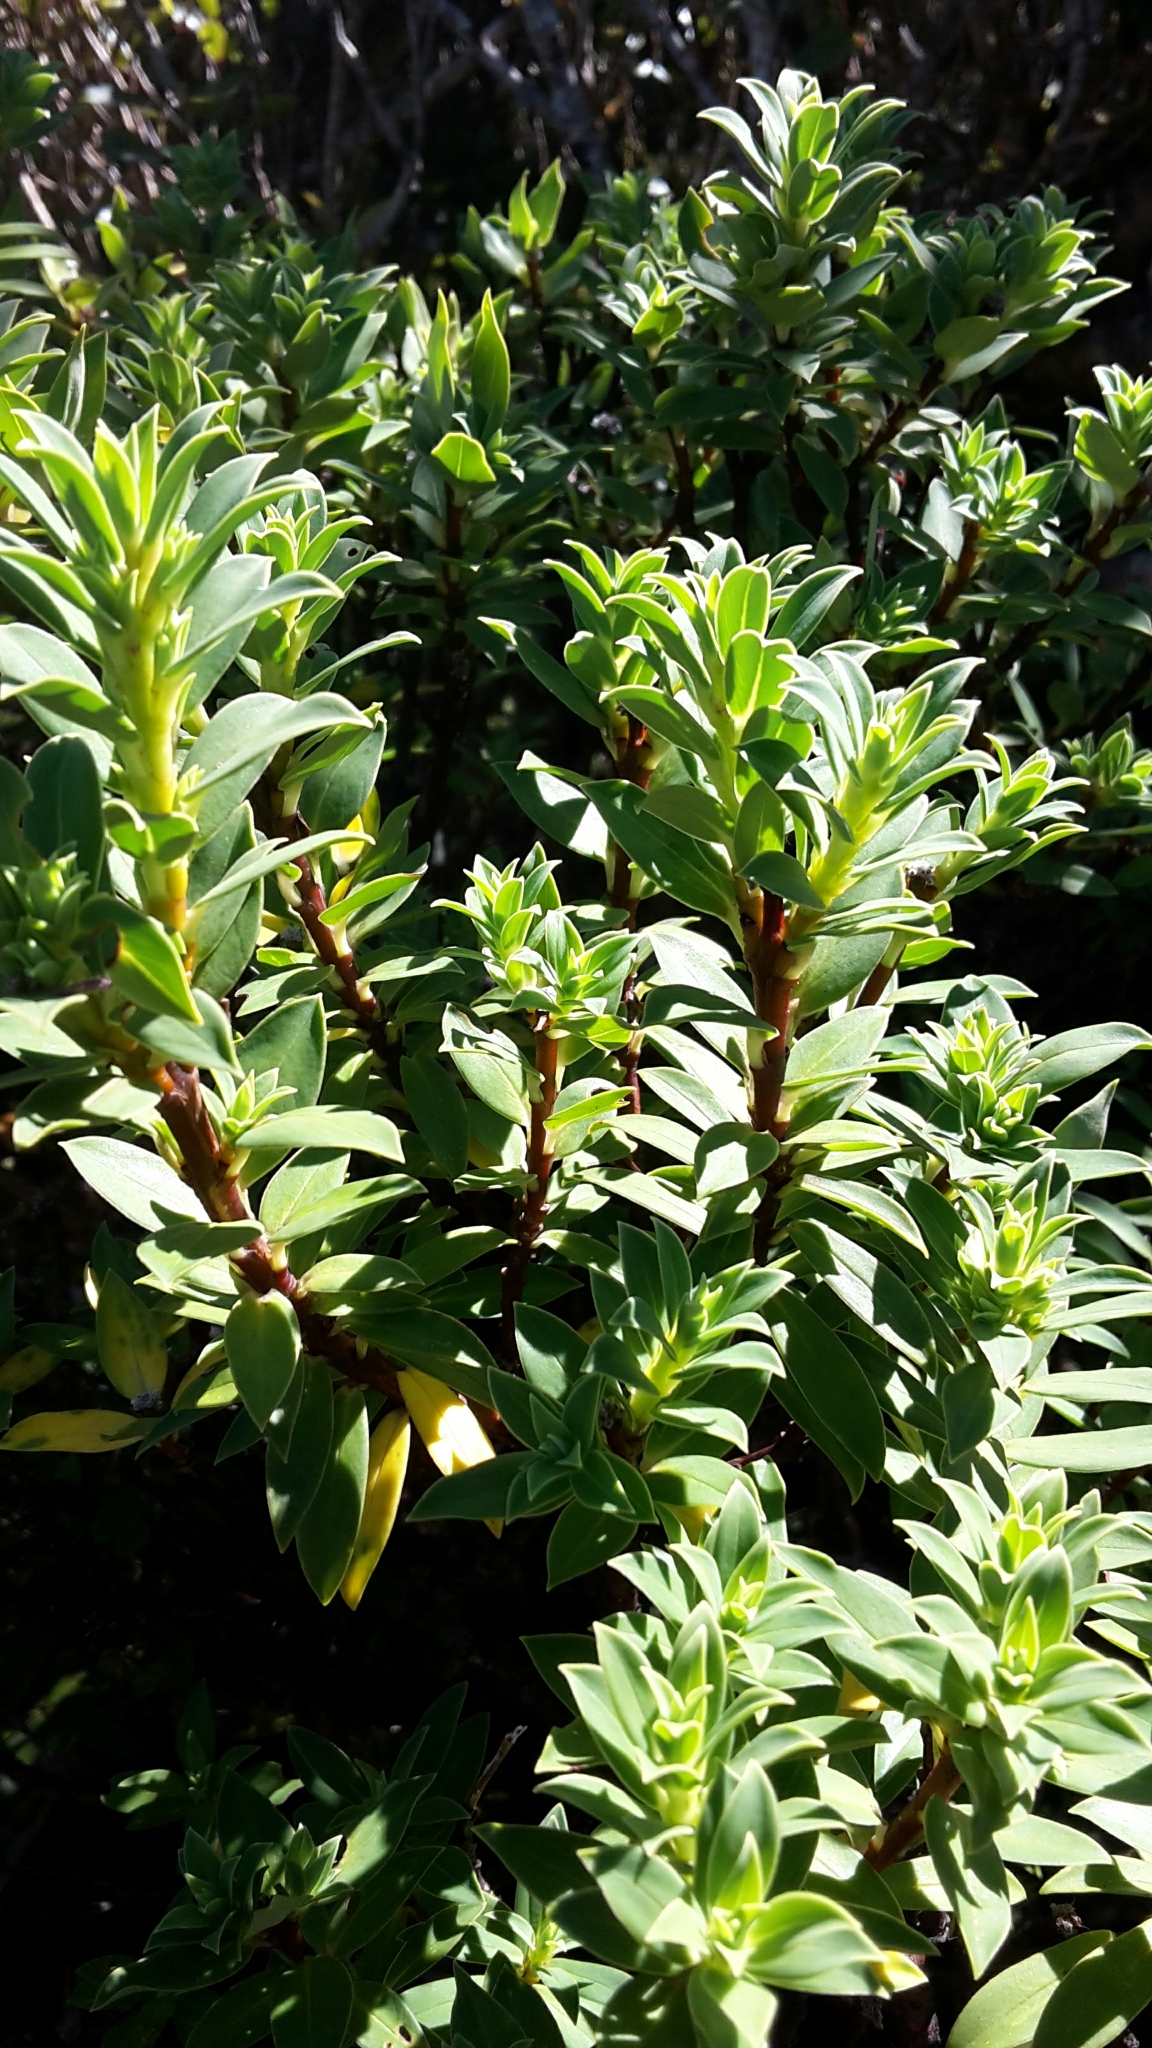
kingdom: Plantae
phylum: Tracheophyta
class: Magnoliopsida
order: Malvales
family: Thymelaeaceae
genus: Pimelea
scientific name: Pimelea longifolia
